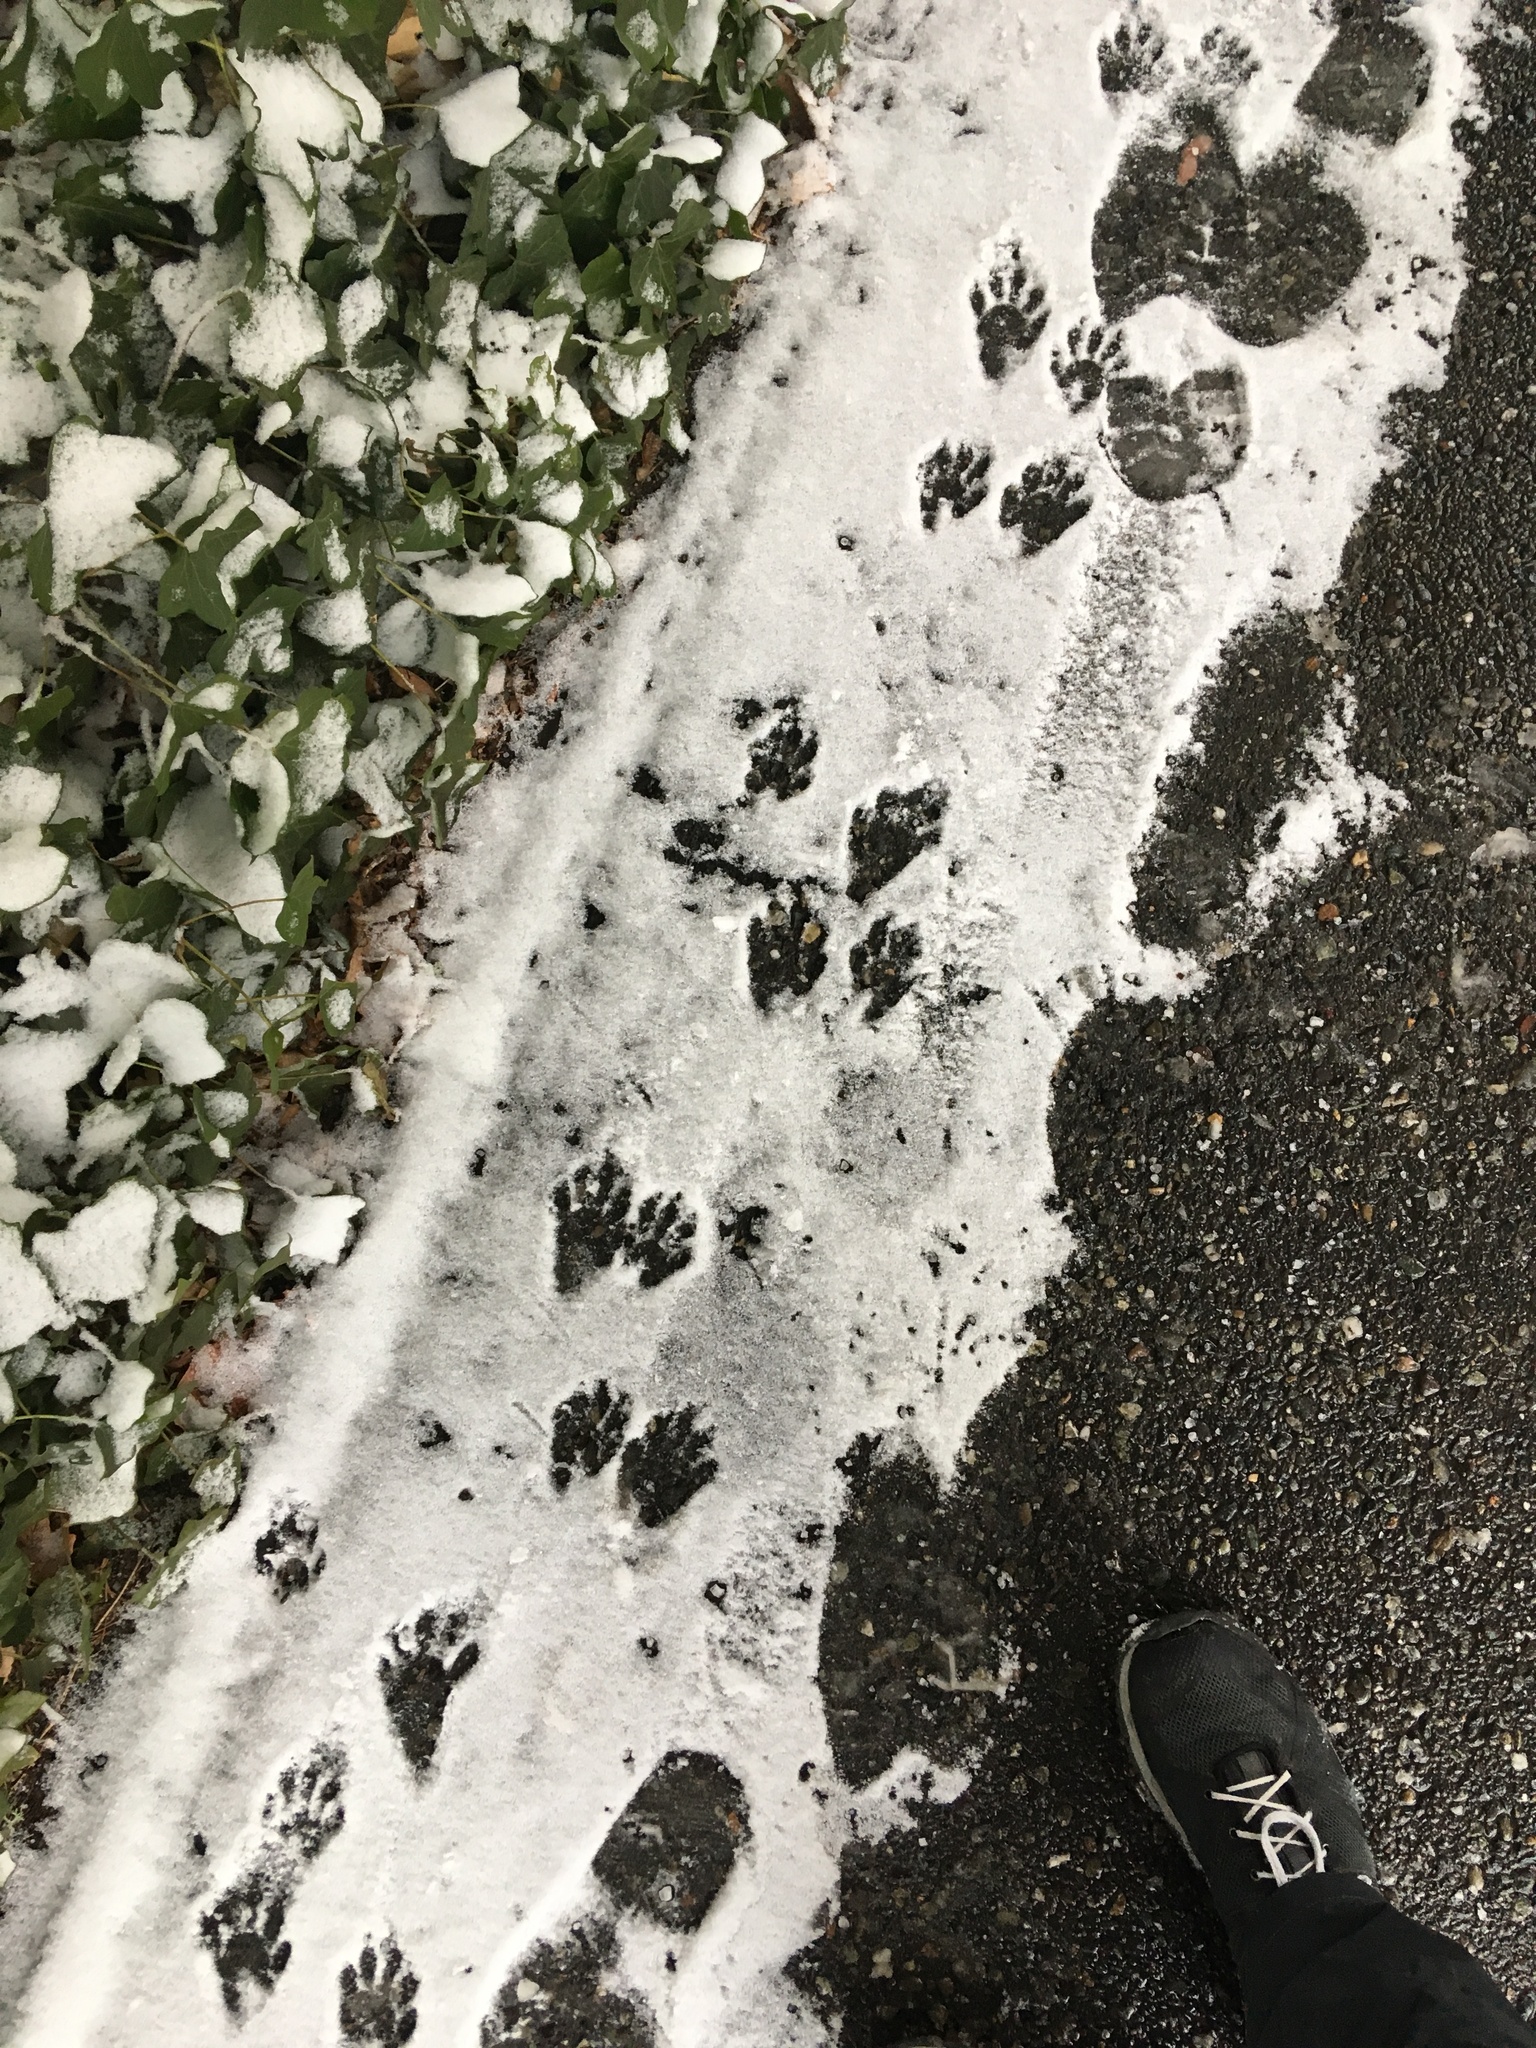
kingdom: Animalia
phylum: Chordata
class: Mammalia
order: Carnivora
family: Procyonidae
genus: Procyon
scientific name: Procyon lotor
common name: Raccoon
